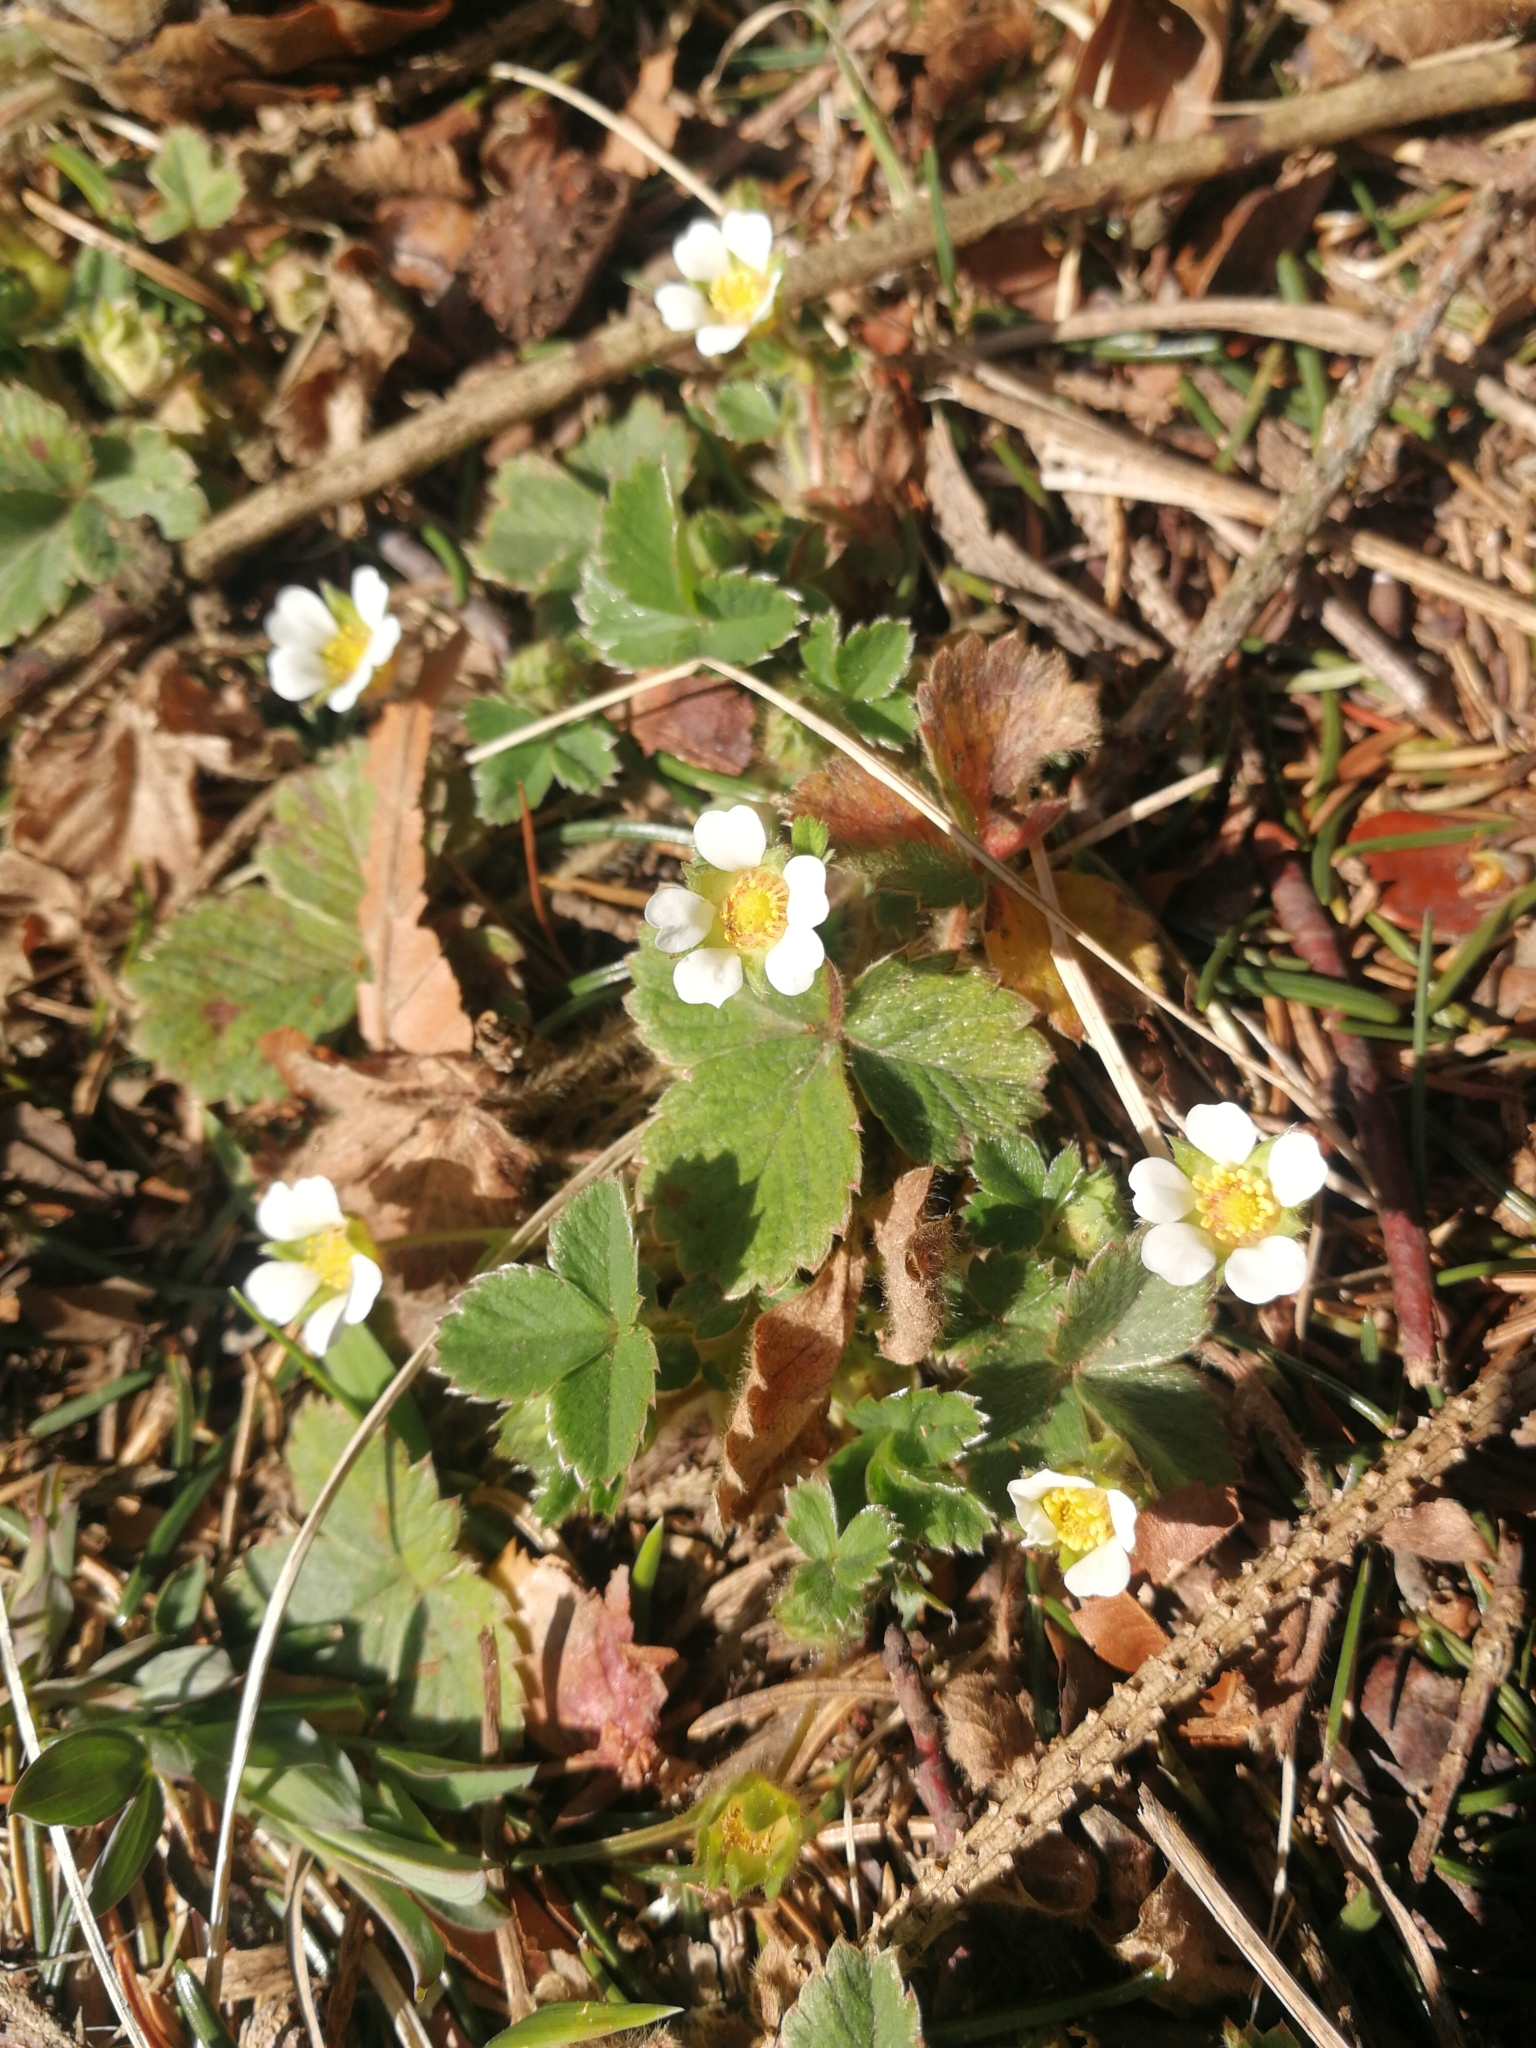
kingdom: Plantae
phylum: Tracheophyta
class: Magnoliopsida
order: Rosales
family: Rosaceae
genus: Potentilla
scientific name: Potentilla sterilis
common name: Barren strawberry
